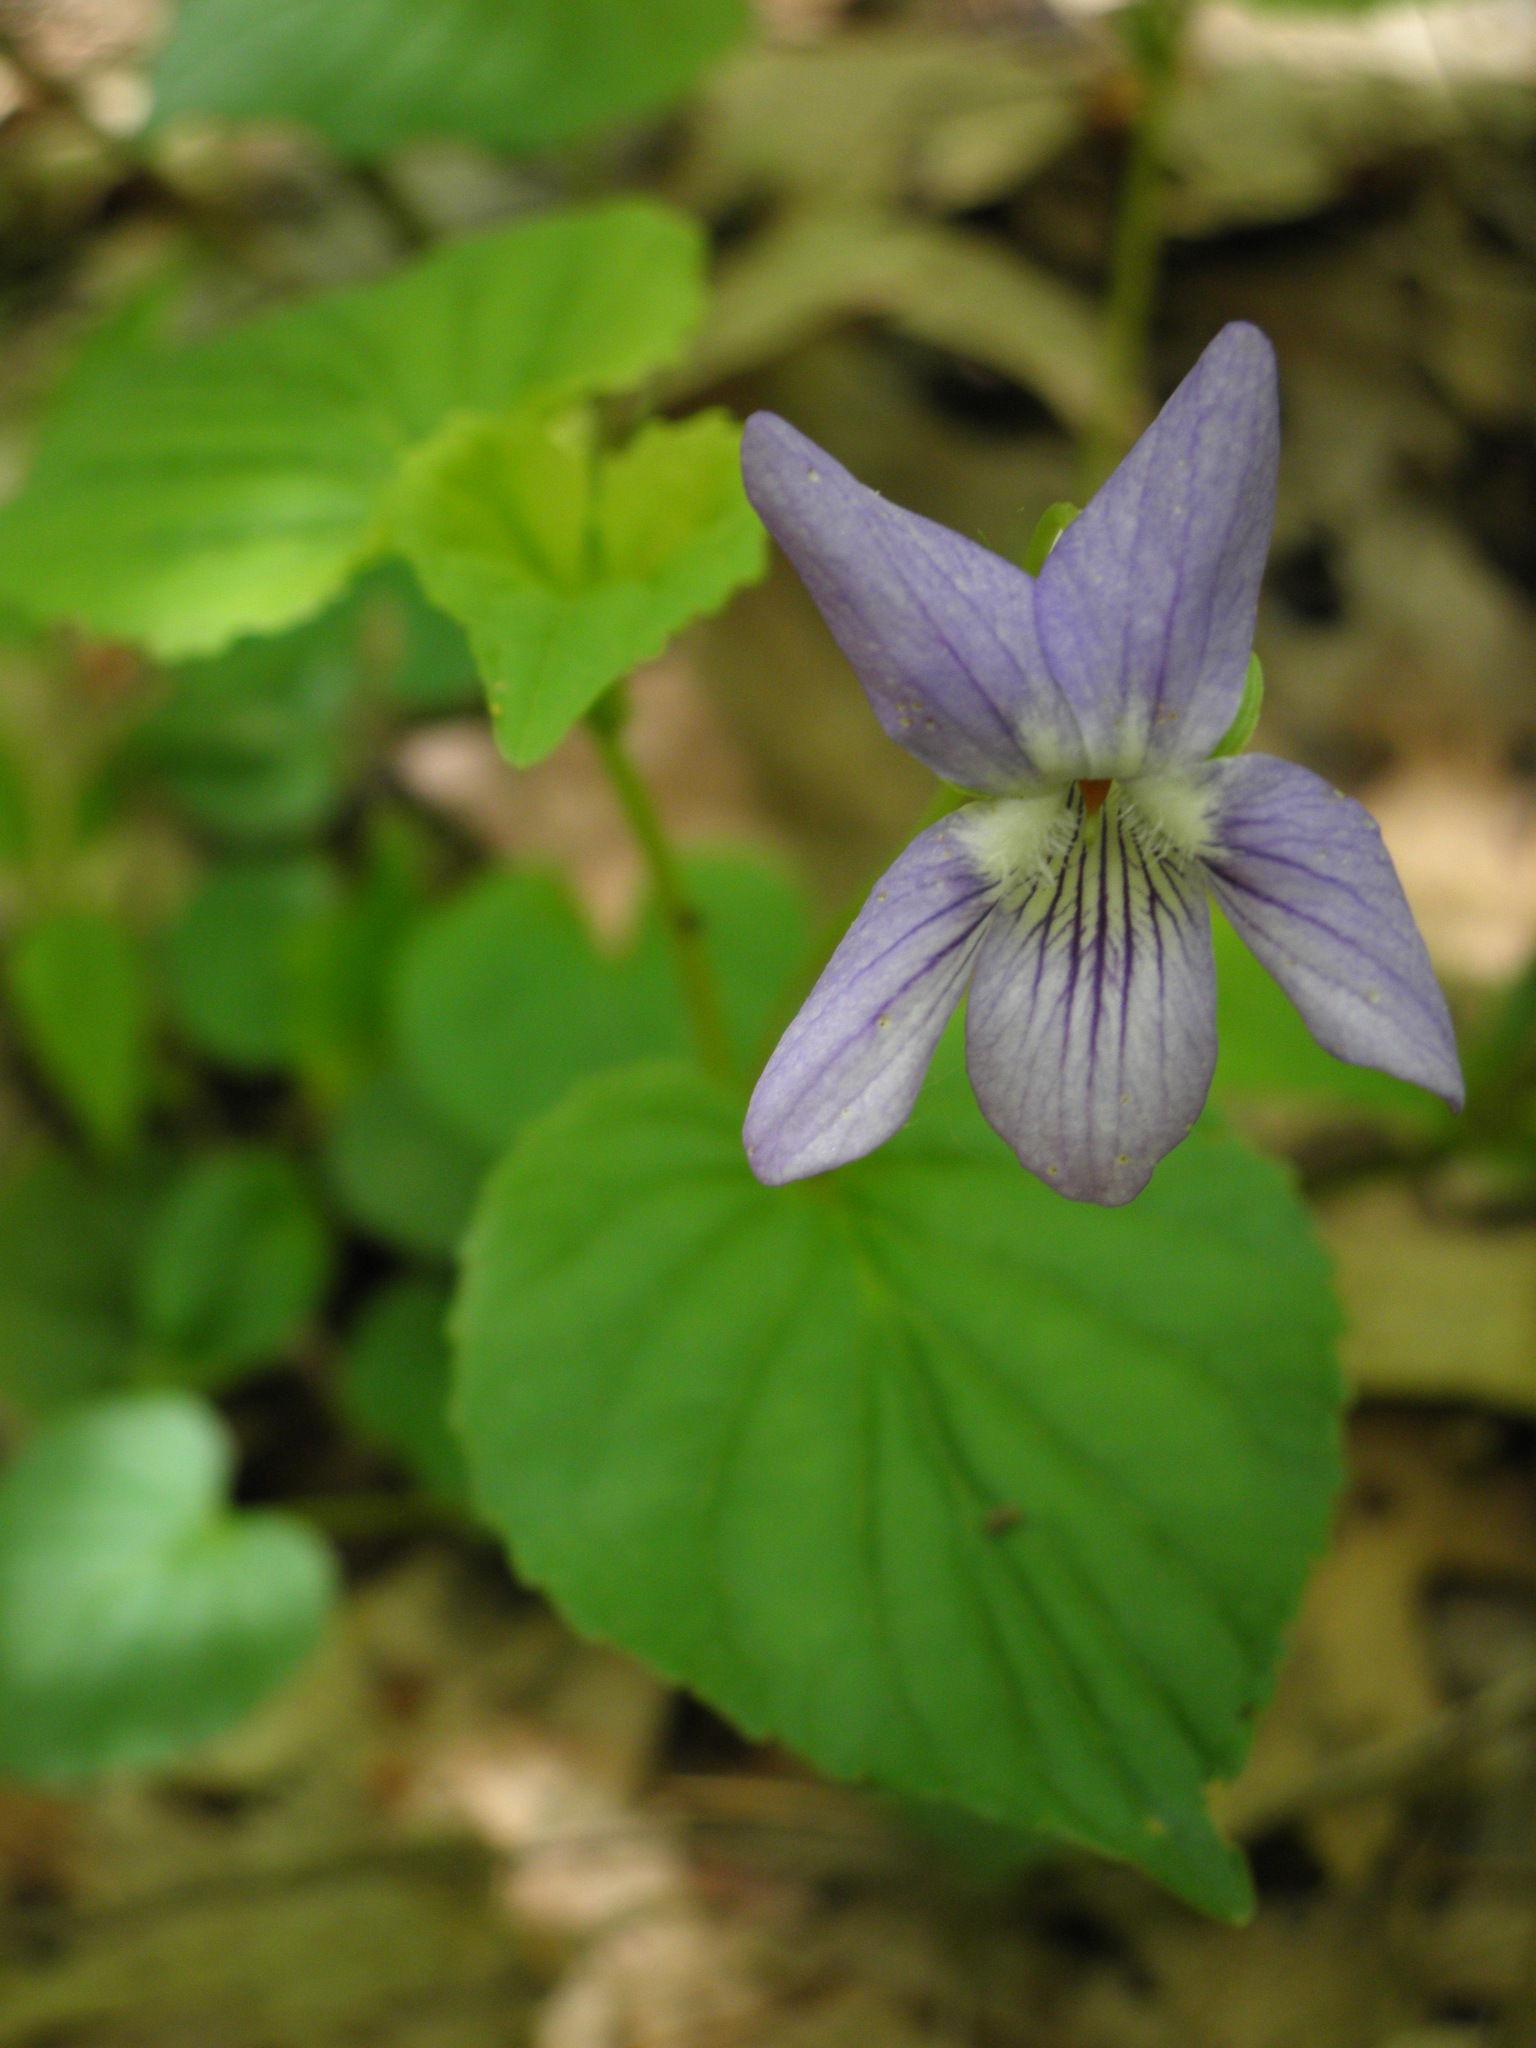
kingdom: Plantae
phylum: Tracheophyta
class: Magnoliopsida
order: Malpighiales
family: Violaceae
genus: Viola
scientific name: Viola labradorica
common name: Labrador violet
